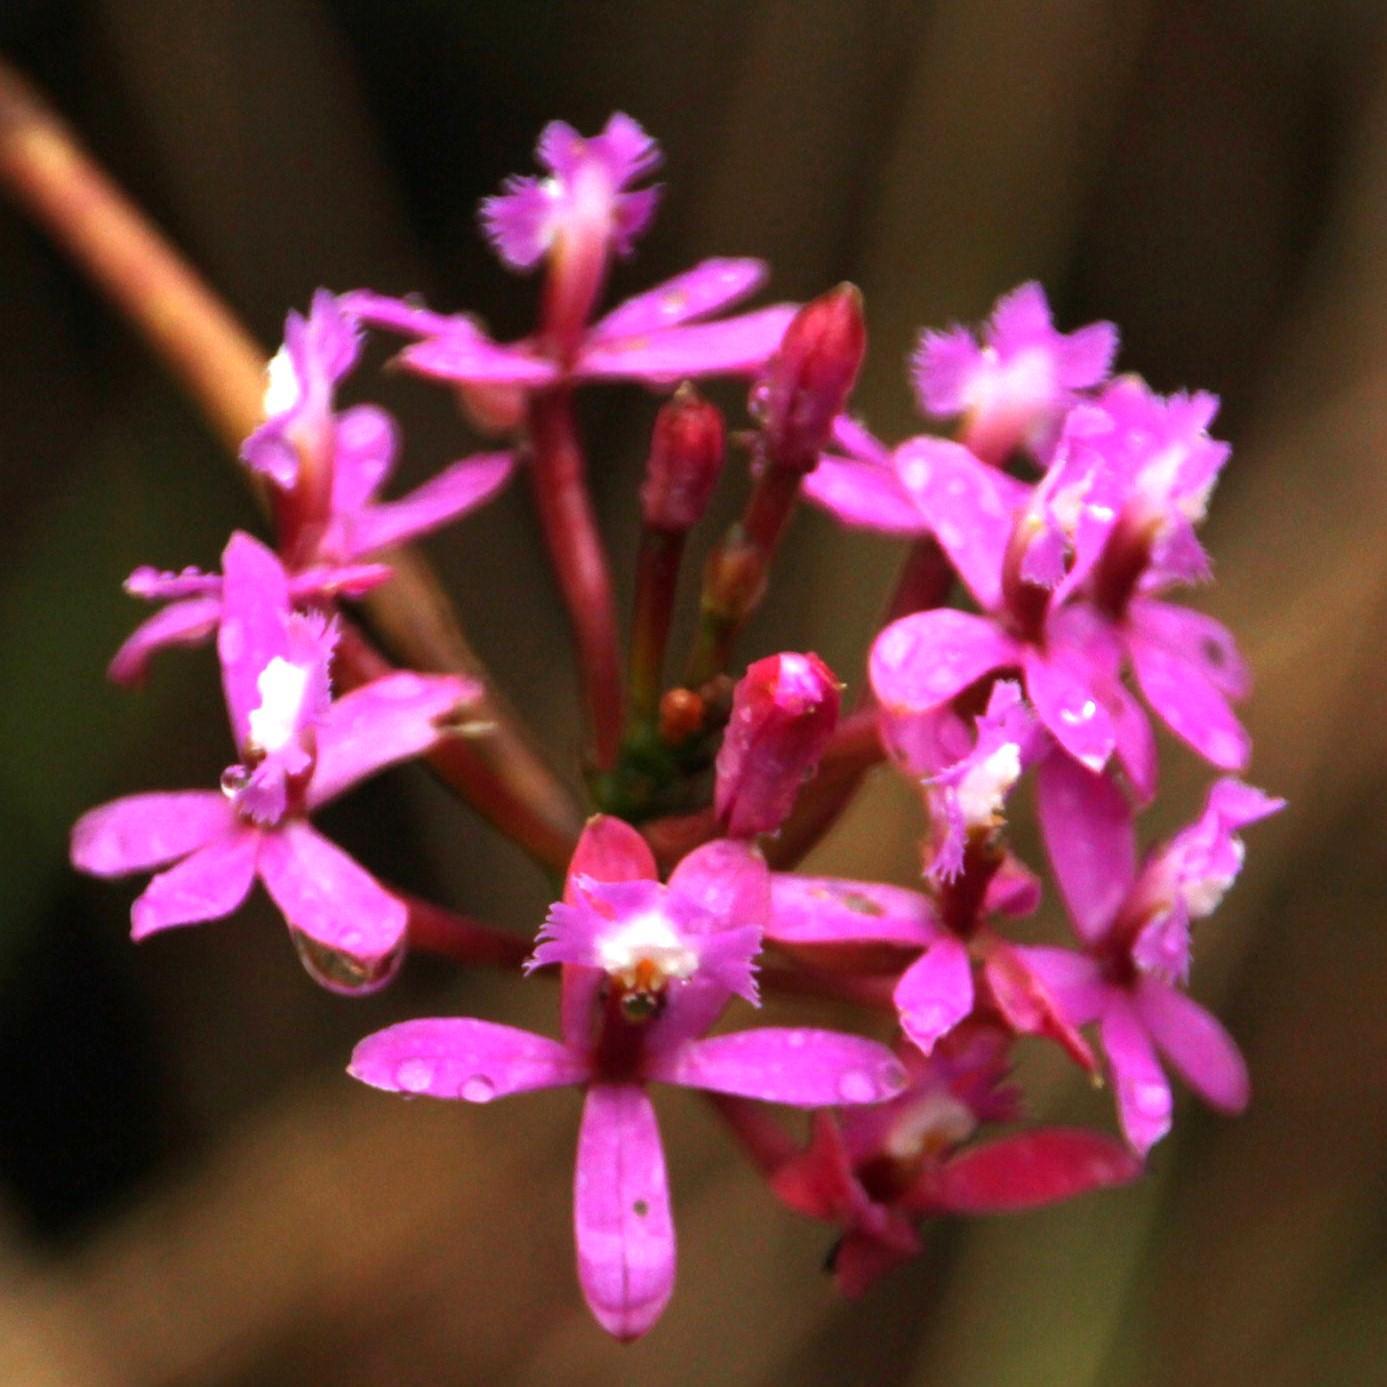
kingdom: Plantae
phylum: Tracheophyta
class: Liliopsida
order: Asparagales
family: Orchidaceae
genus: Epidendrum
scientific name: Epidendrum secundum
